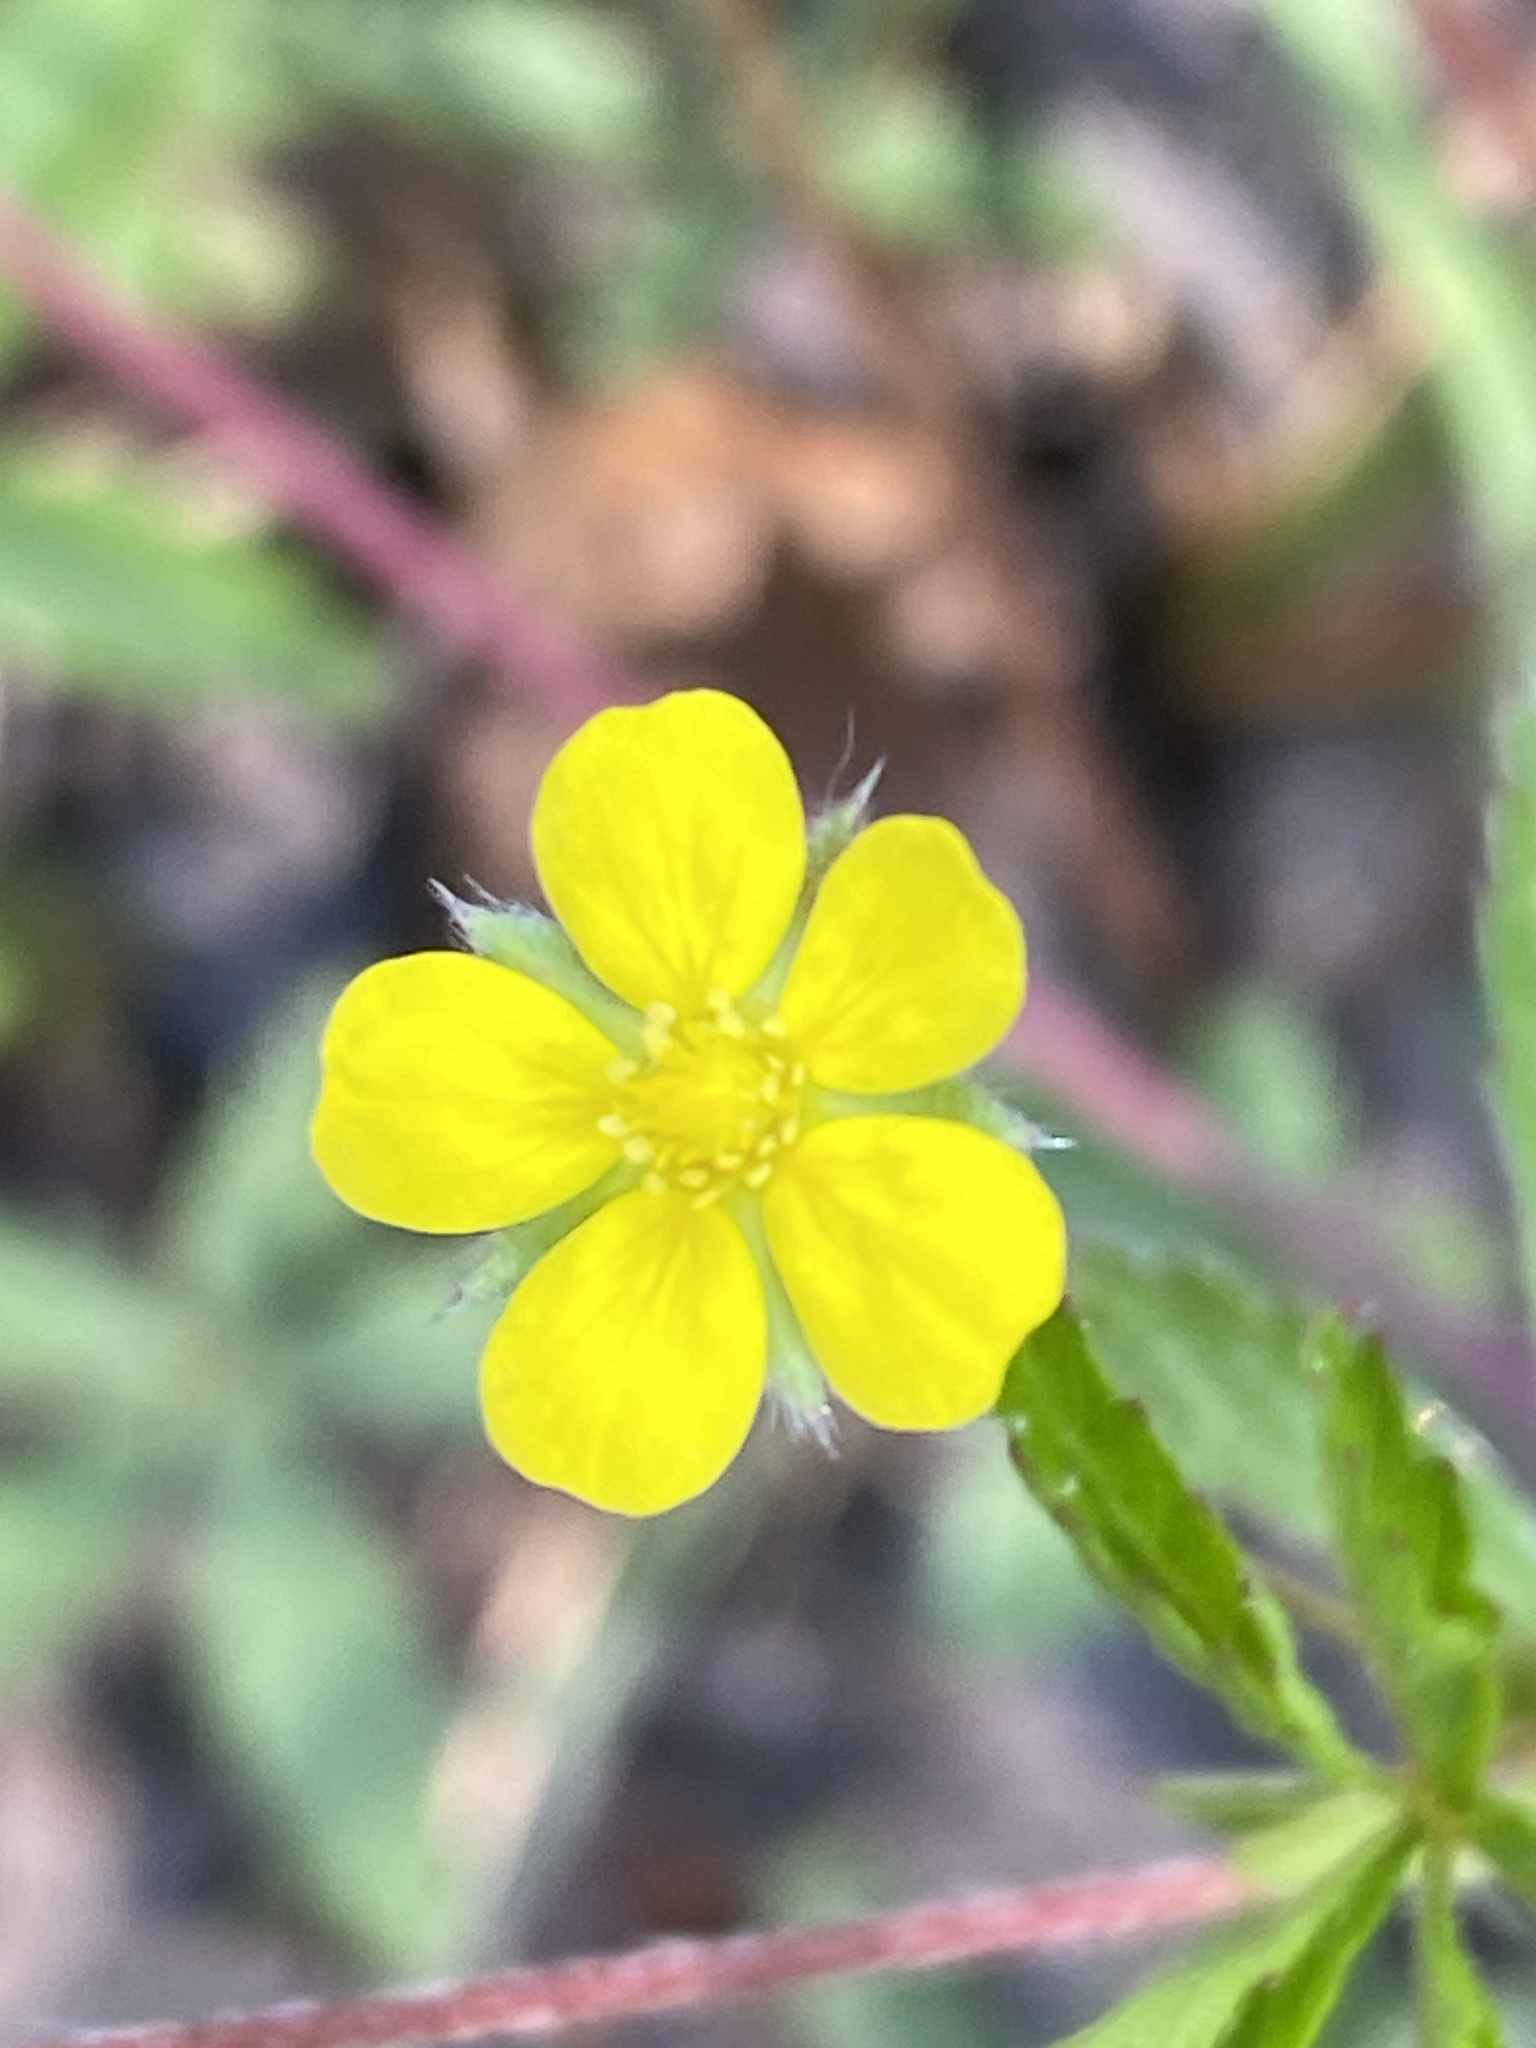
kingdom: Plantae
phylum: Tracheophyta
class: Magnoliopsida
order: Rosales
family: Rosaceae
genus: Potentilla
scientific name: Potentilla canadensis
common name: Canada cinquefoil
